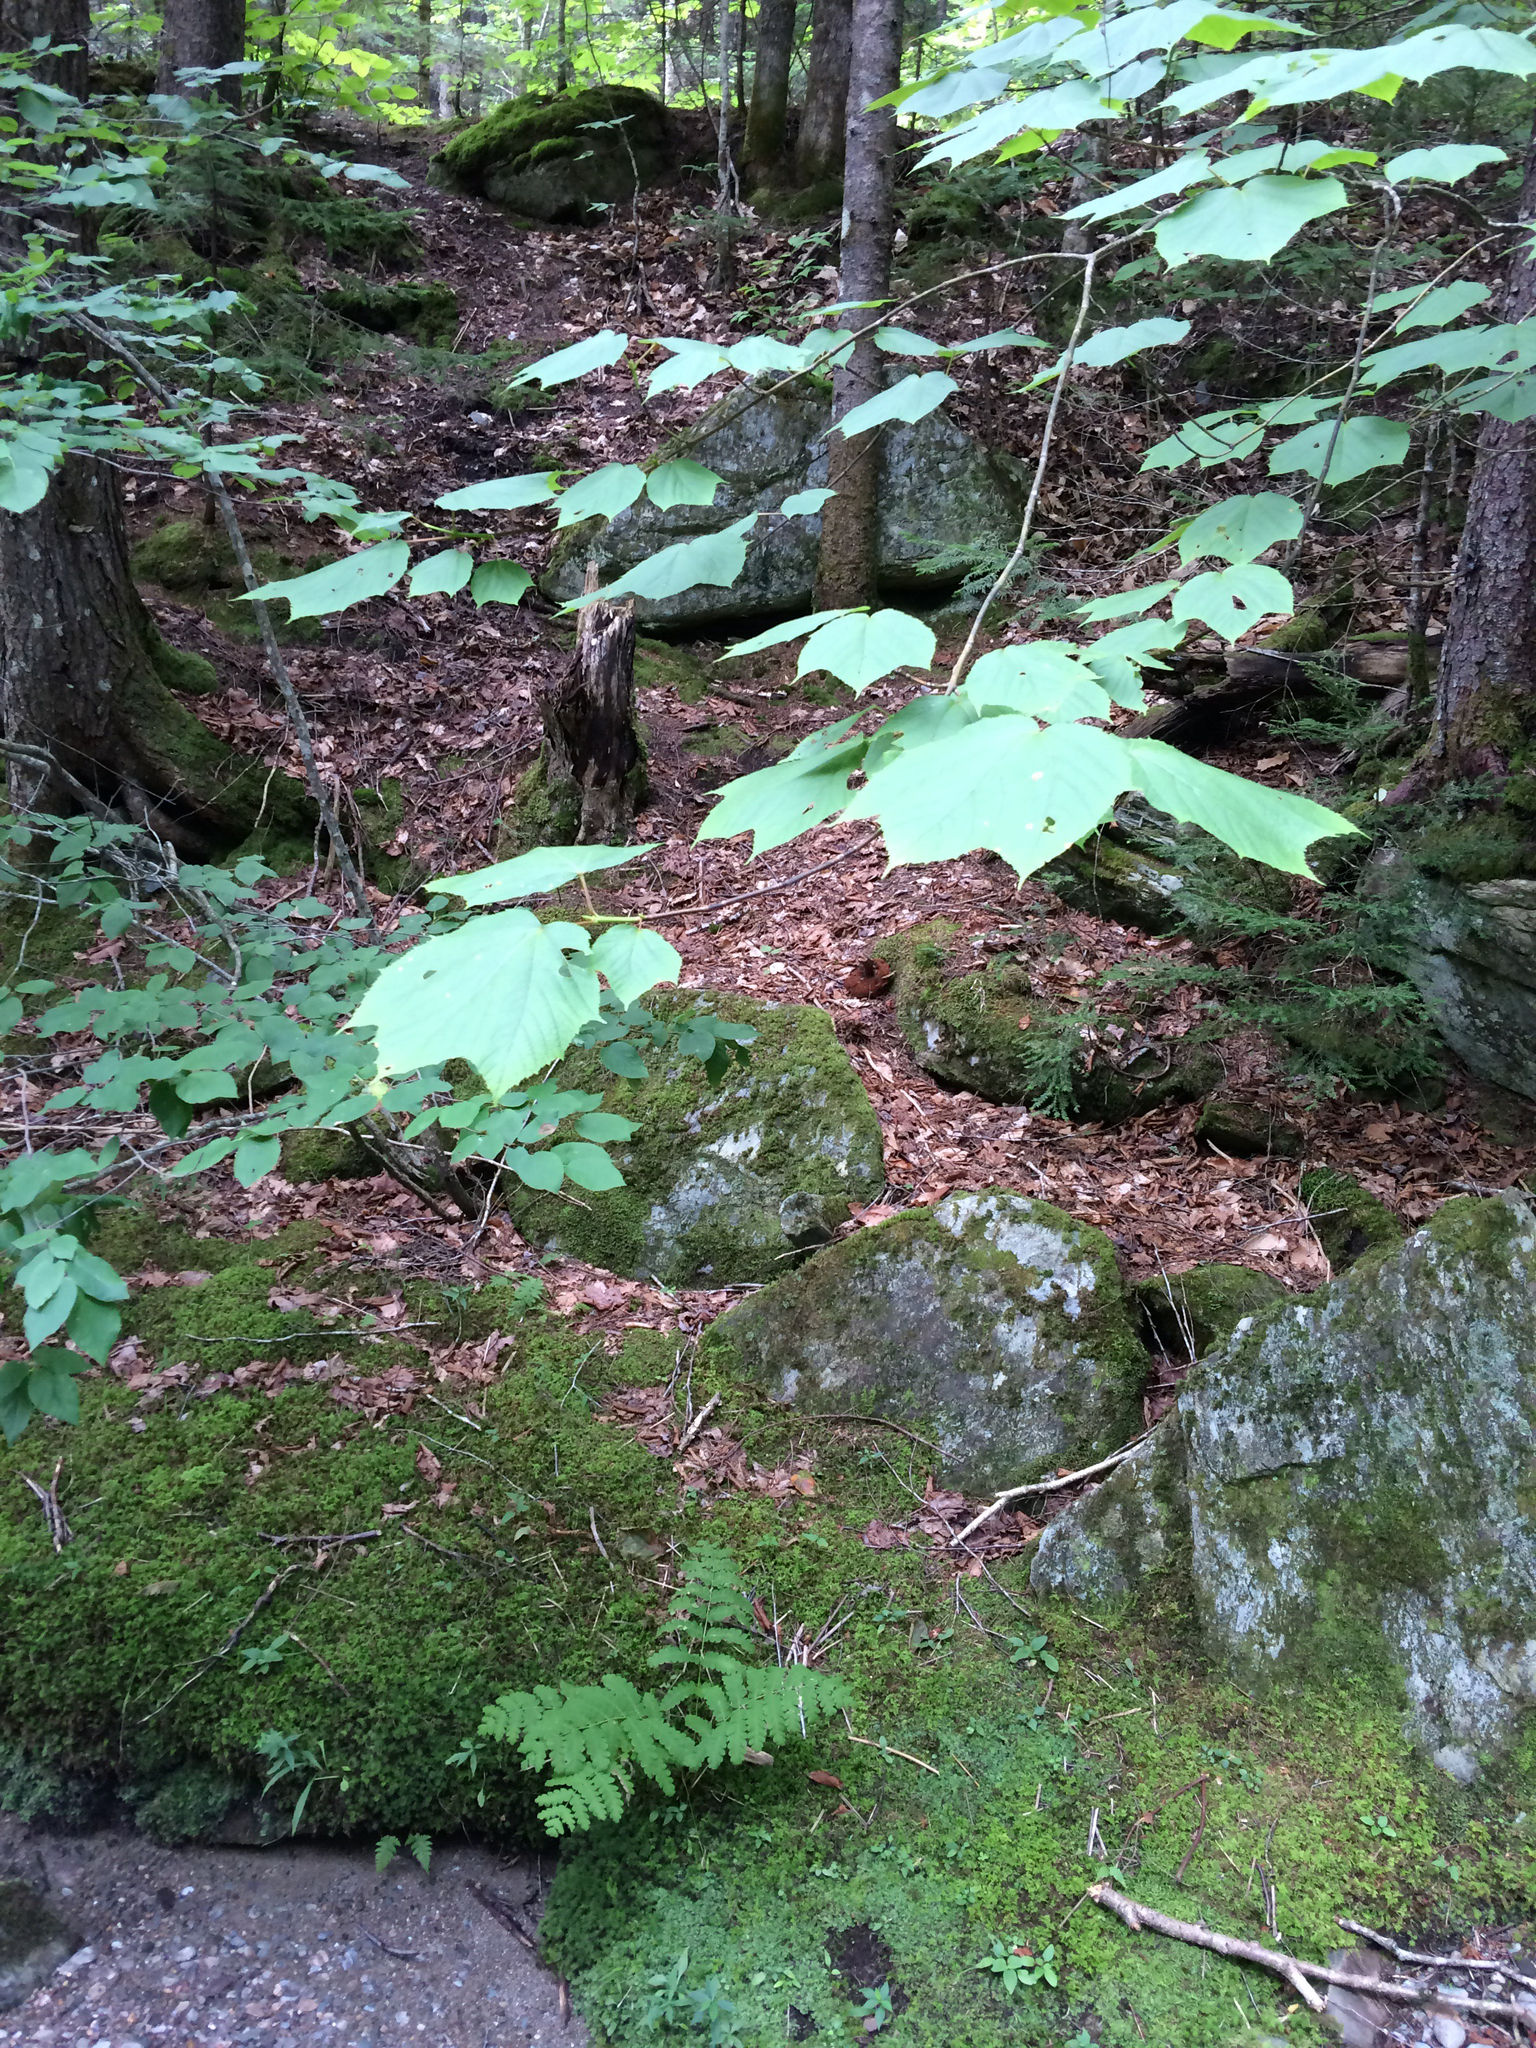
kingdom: Plantae
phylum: Tracheophyta
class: Magnoliopsida
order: Sapindales
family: Sapindaceae
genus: Acer
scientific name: Acer pensylvanicum
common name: Moosewood
